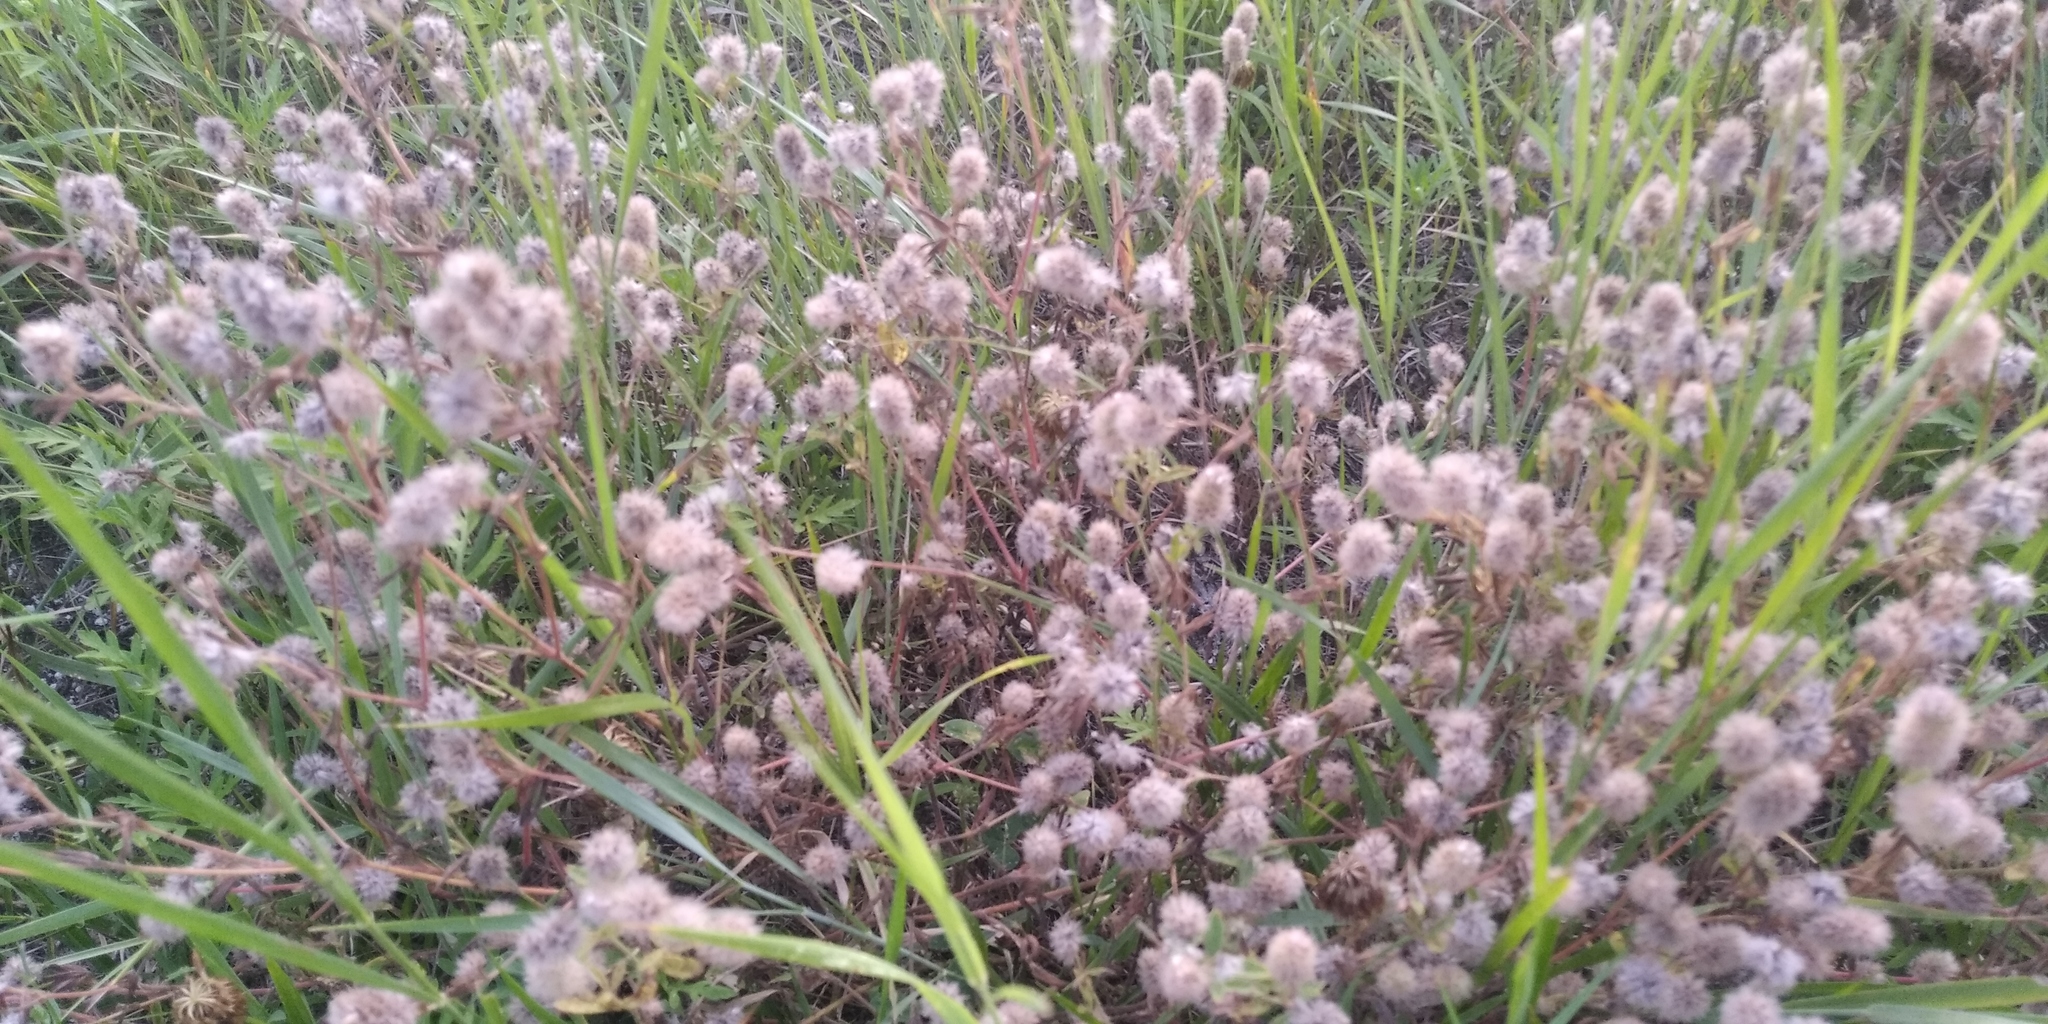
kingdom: Plantae
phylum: Tracheophyta
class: Magnoliopsida
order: Fabales
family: Fabaceae
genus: Trifolium
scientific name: Trifolium arvense
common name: Hare's-foot clover
